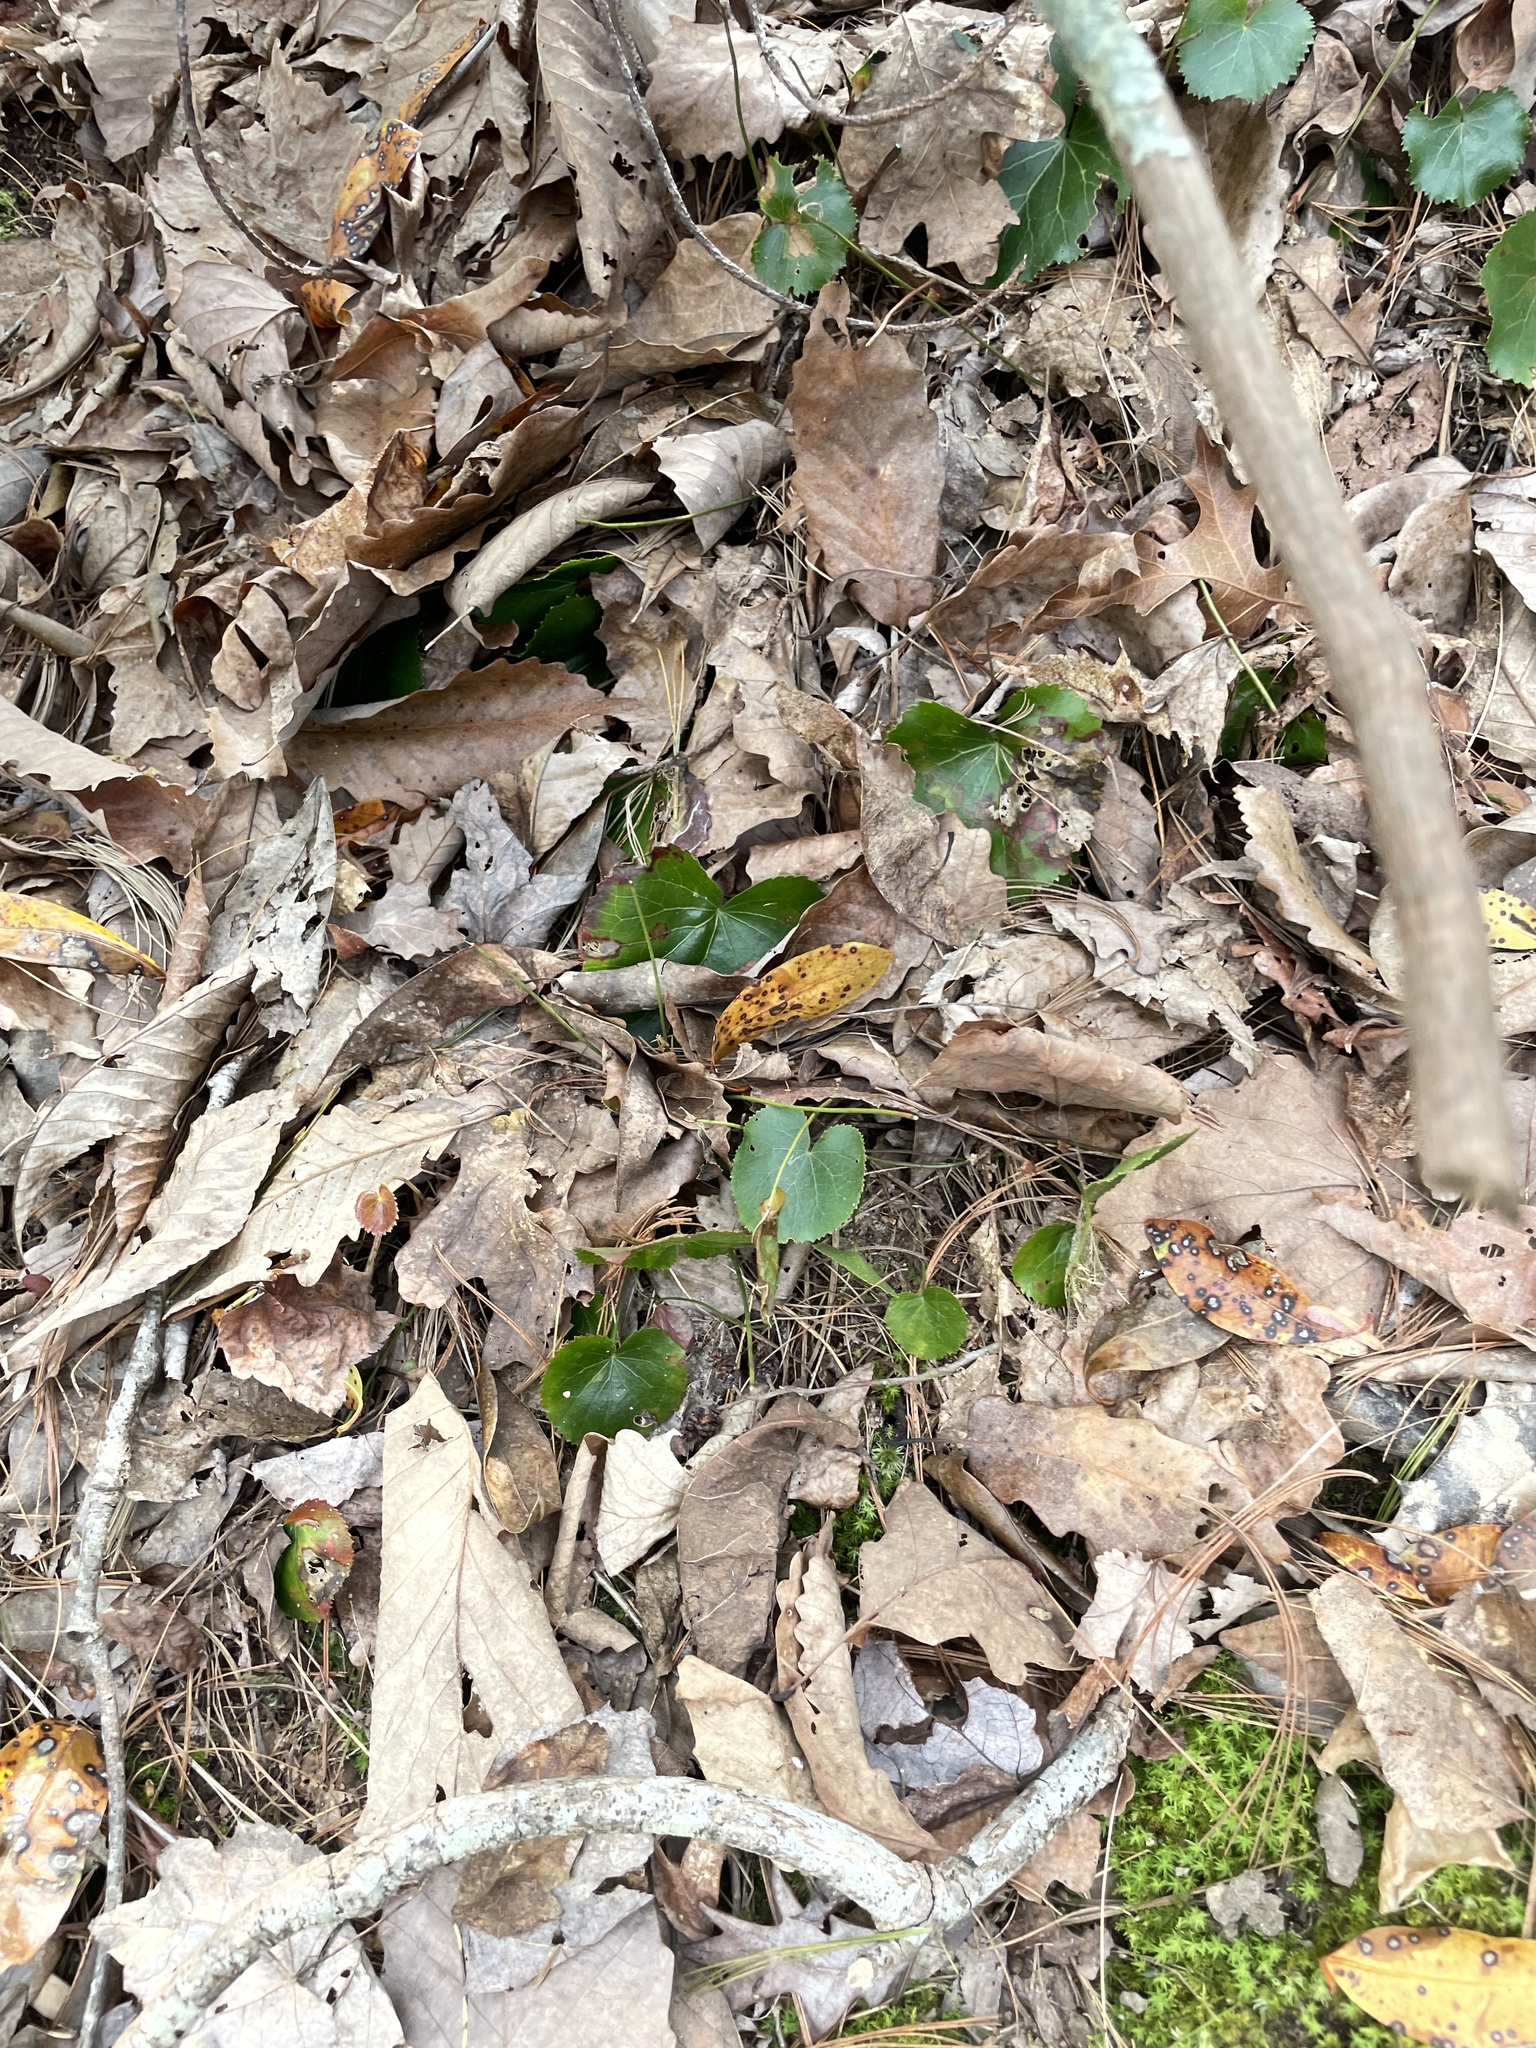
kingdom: Plantae
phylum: Tracheophyta
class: Magnoliopsida
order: Ericales
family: Diapensiaceae
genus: Galax
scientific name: Galax urceolata
